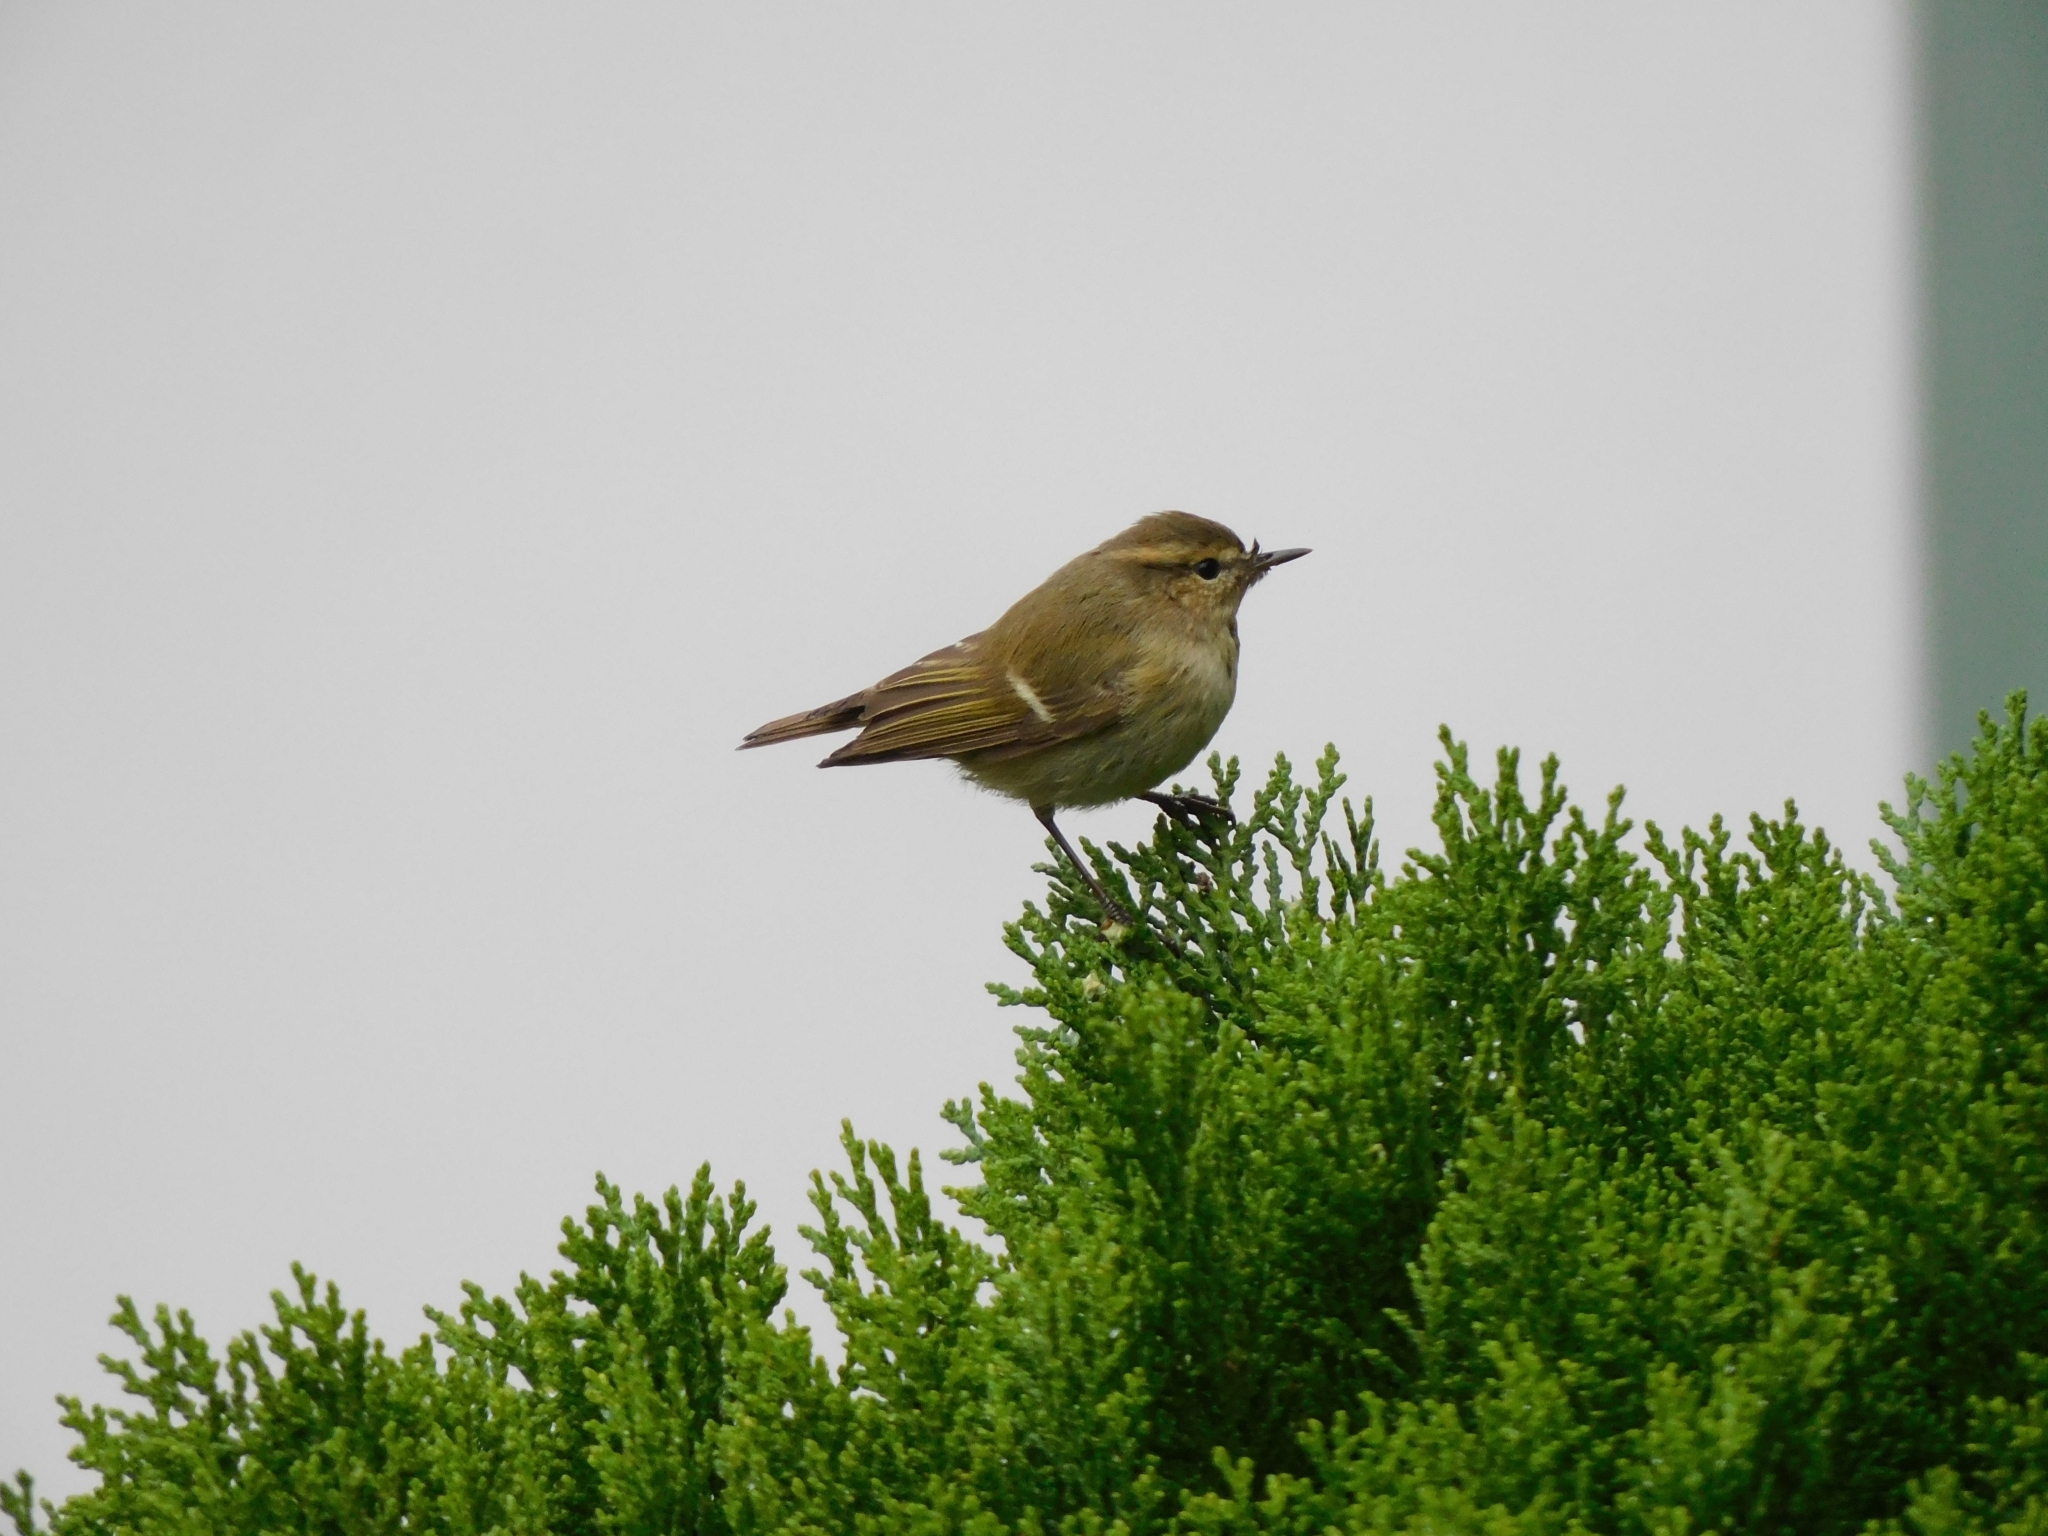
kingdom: Animalia
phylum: Chordata
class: Aves
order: Passeriformes
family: Phylloscopidae
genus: Phylloscopus
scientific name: Phylloscopus humei
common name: Hume's leaf warbler
